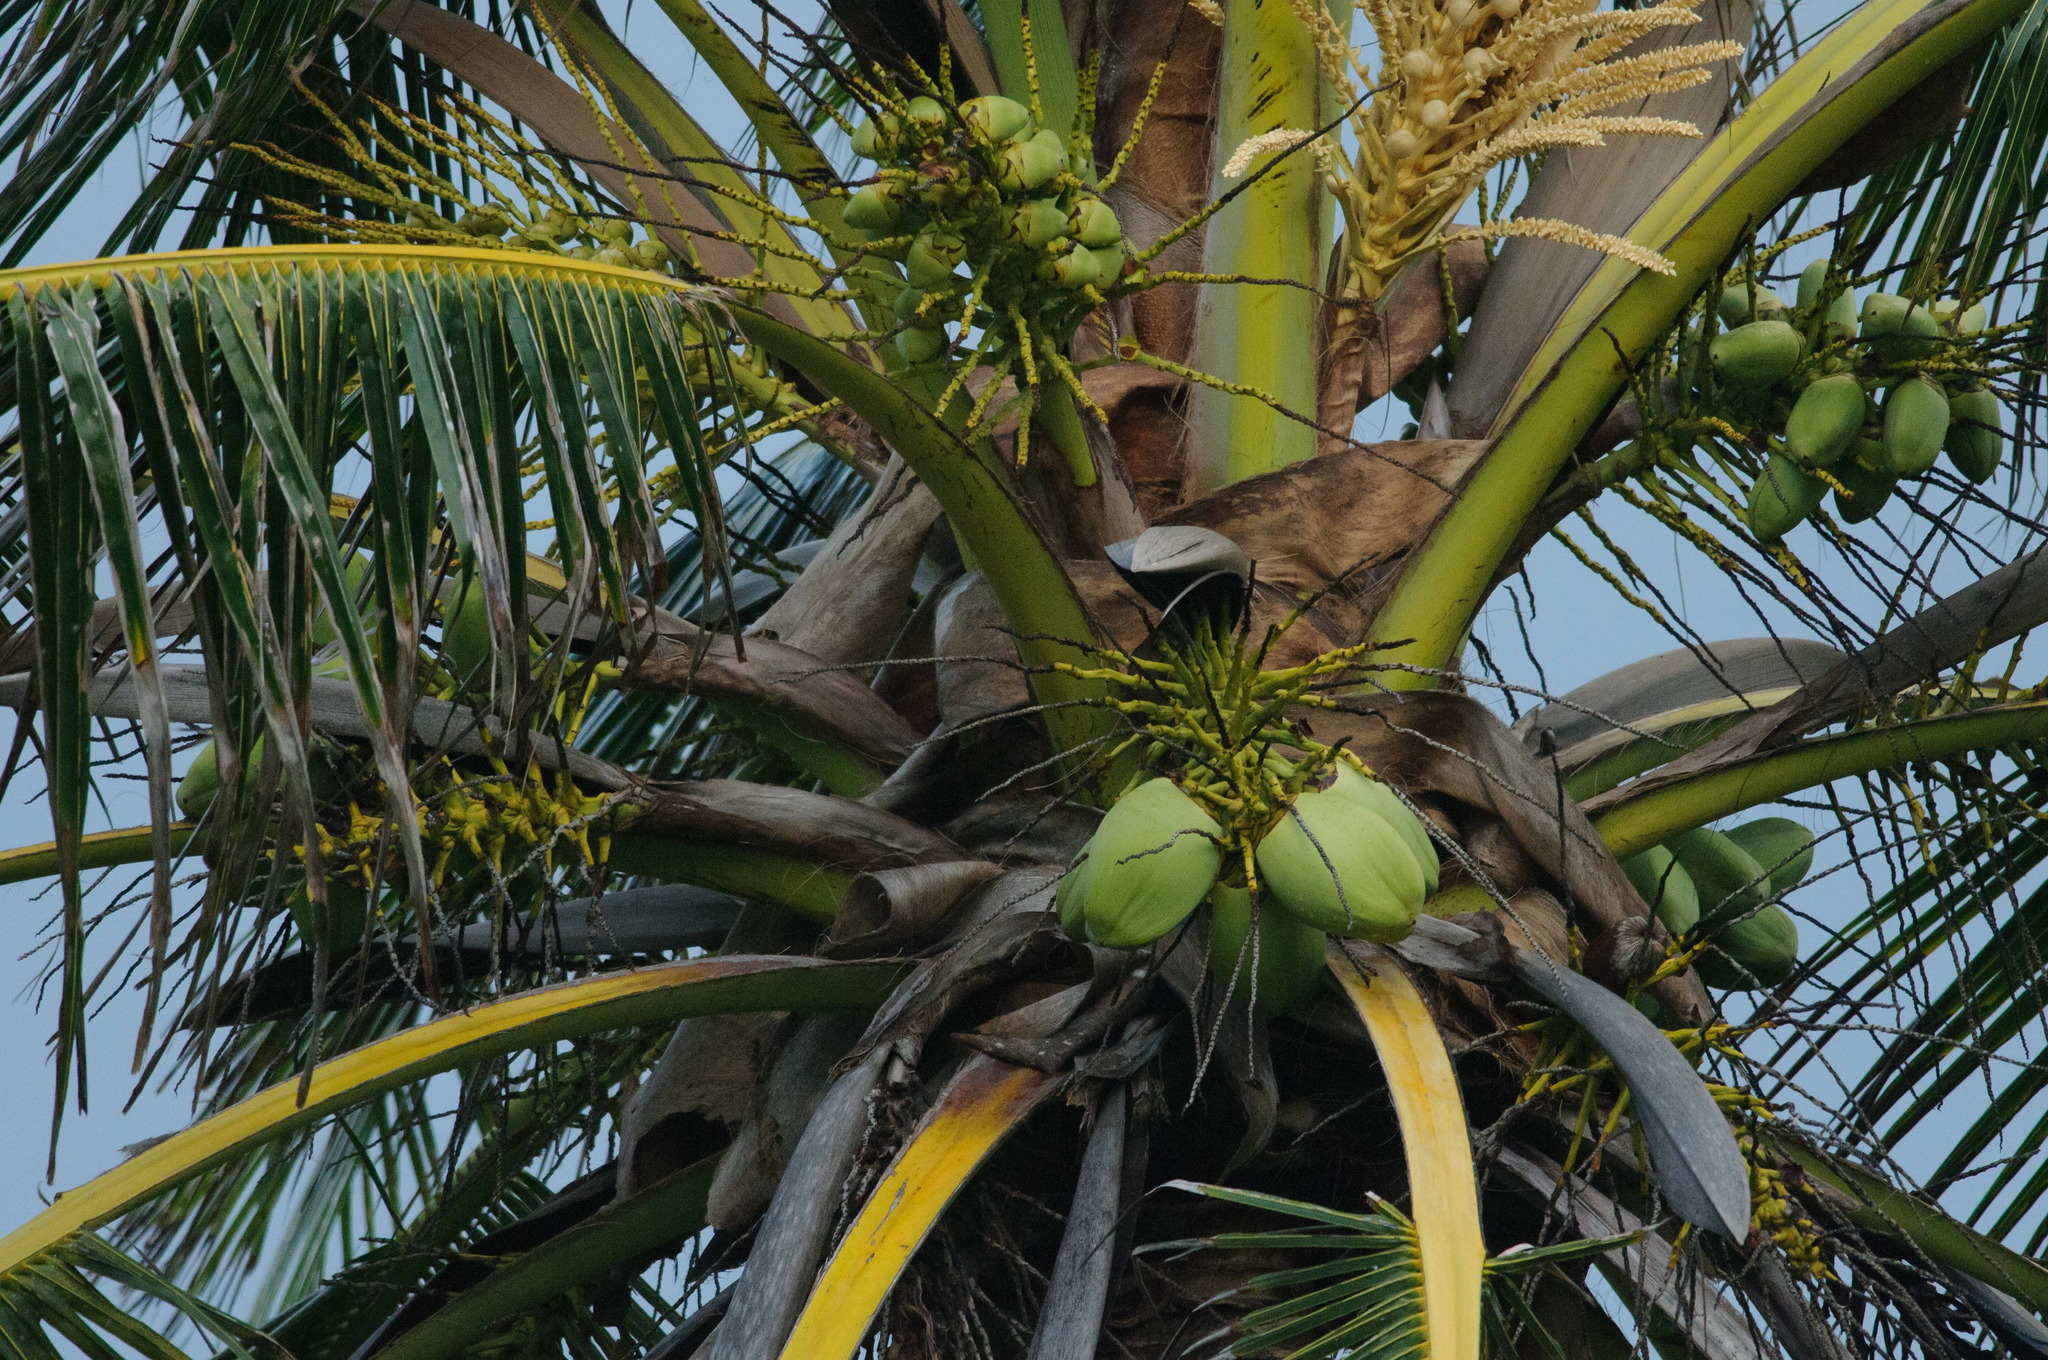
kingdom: Plantae
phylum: Tracheophyta
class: Liliopsida
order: Arecales
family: Arecaceae
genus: Cocos
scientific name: Cocos nucifera
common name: Coconut palm
